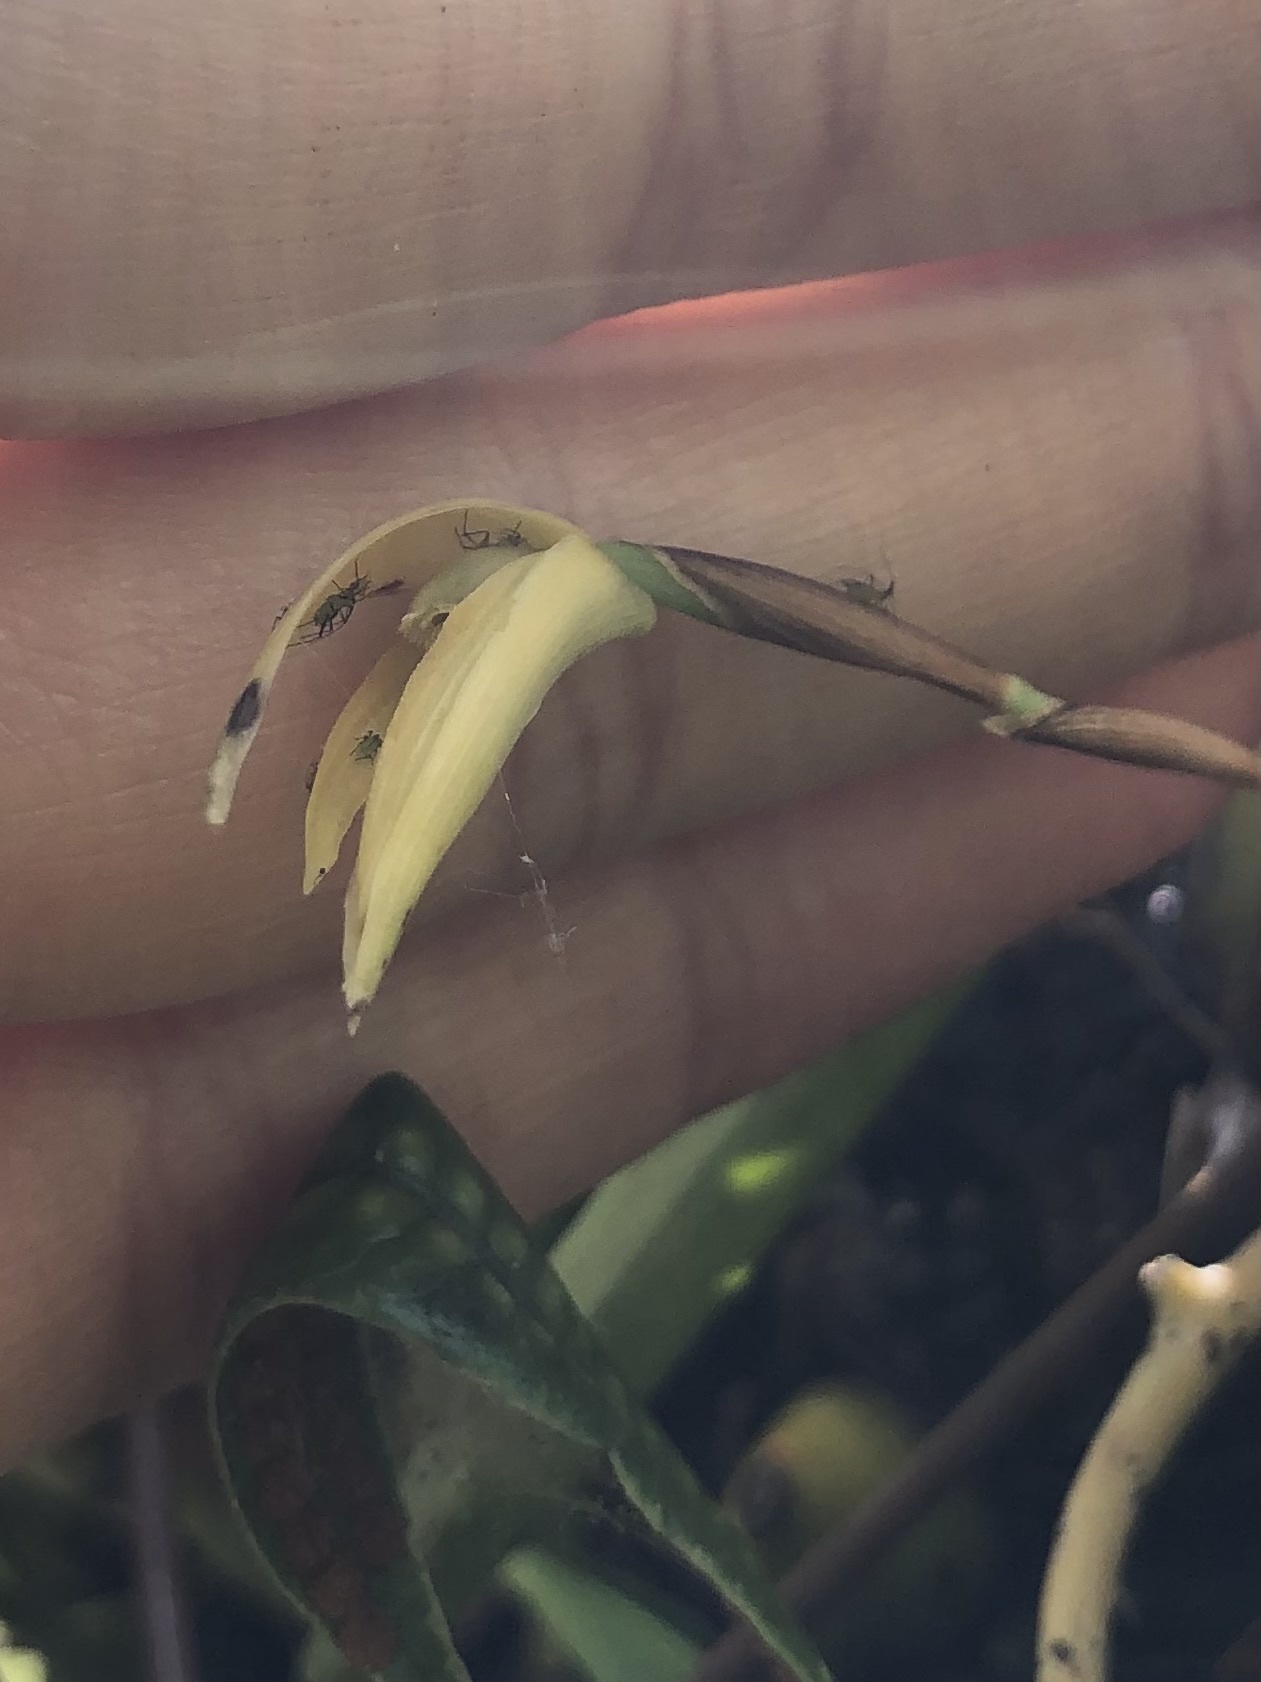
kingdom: Plantae
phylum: Tracheophyta
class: Liliopsida
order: Asparagales
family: Orchidaceae
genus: Maxillaria
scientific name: Maxillaria acuminata
